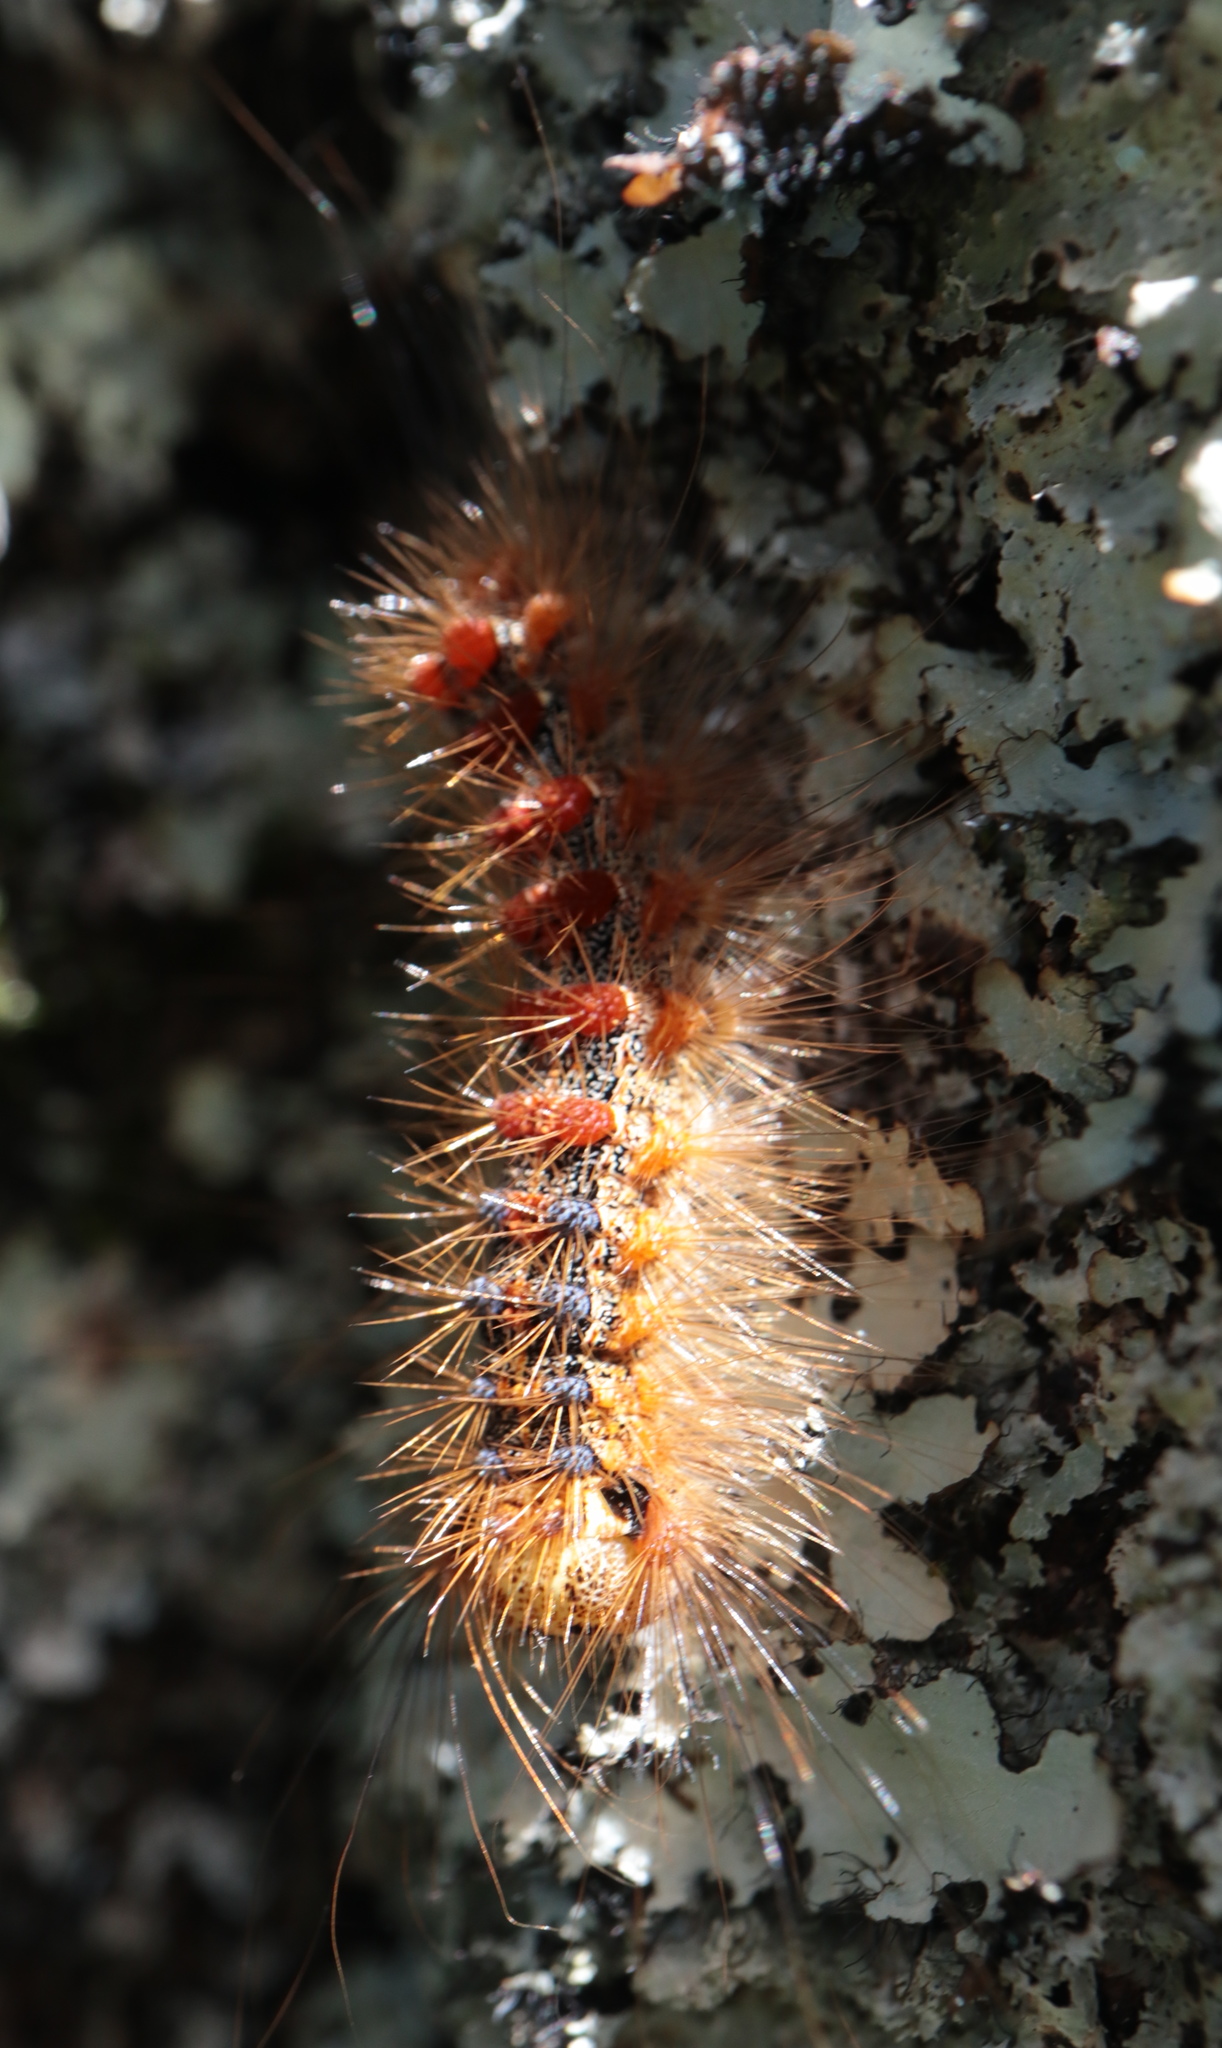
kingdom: Animalia
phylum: Arthropoda
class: Insecta
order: Lepidoptera
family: Erebidae
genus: Lymantria
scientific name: Lymantria dispar
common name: Gypsy moth
